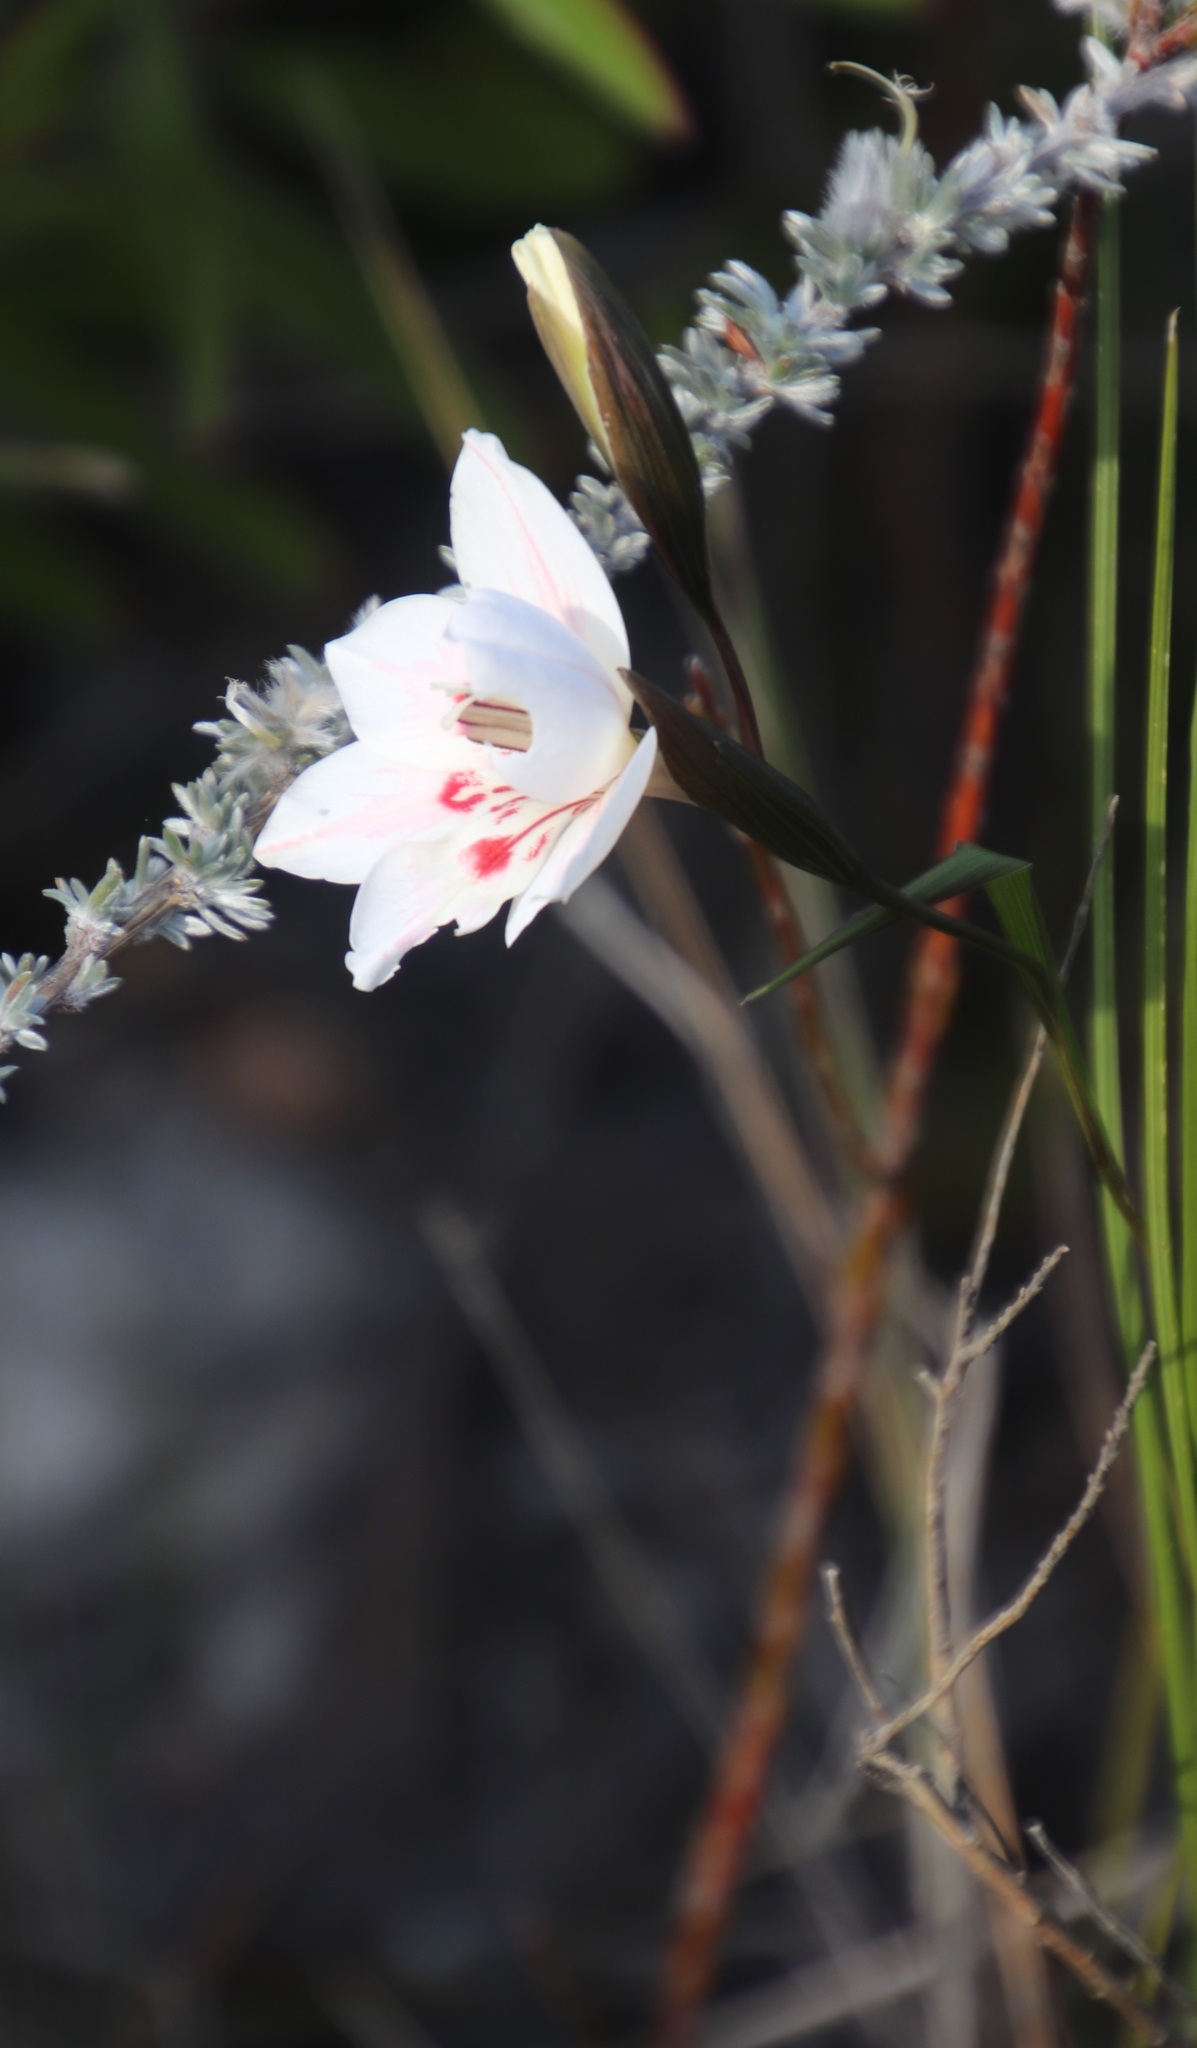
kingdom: Plantae
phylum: Tracheophyta
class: Liliopsida
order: Asparagales
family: Iridaceae
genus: Gladiolus
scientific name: Gladiolus debilis
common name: Painted-lady
